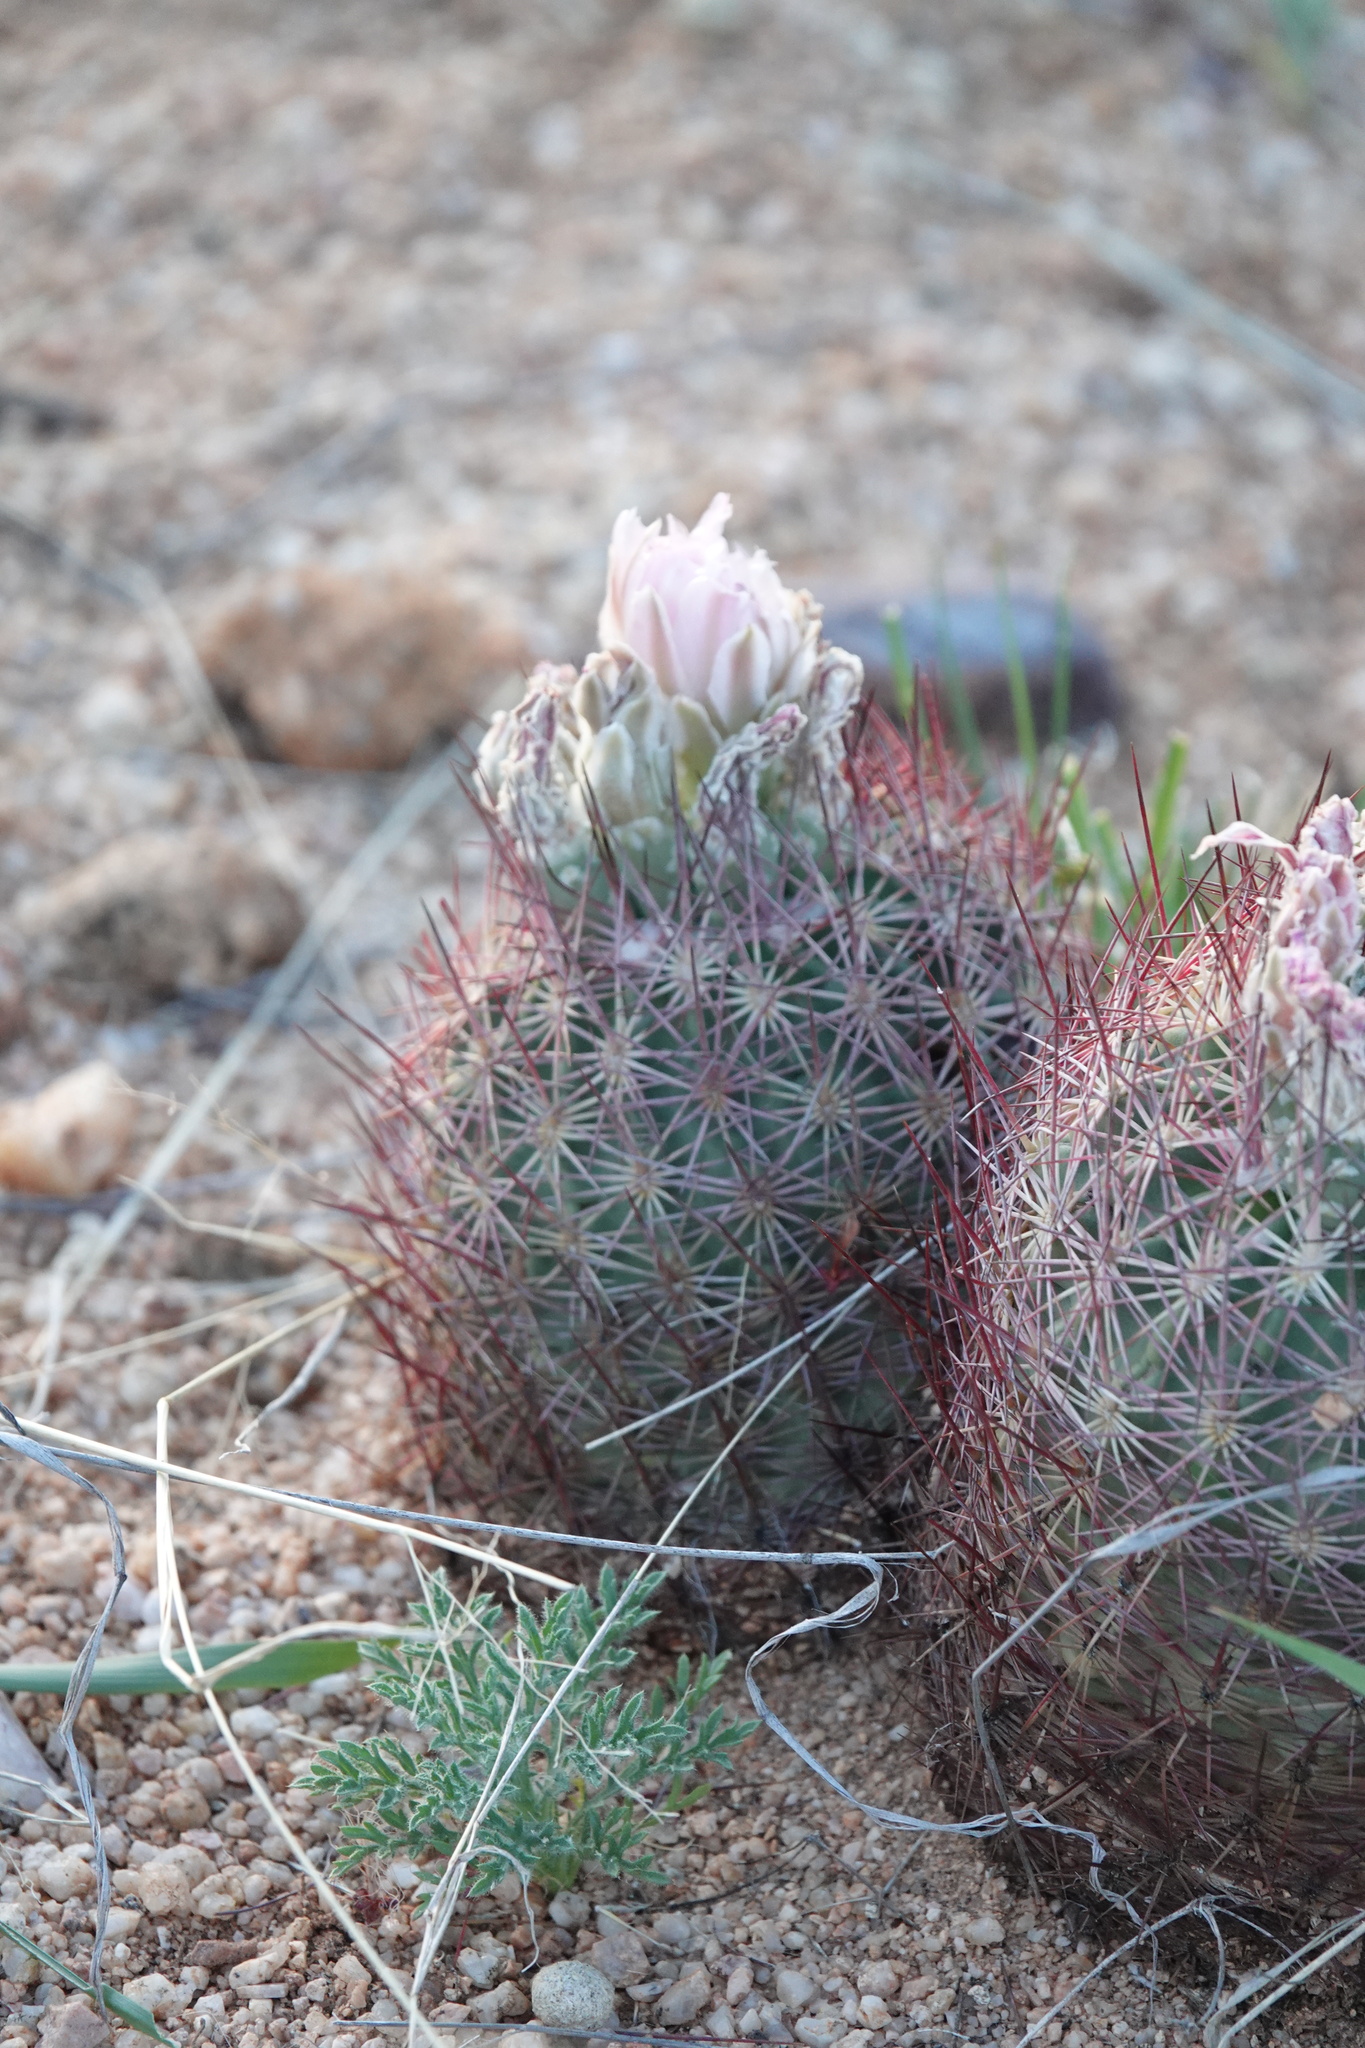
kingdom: Plantae
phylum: Tracheophyta
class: Magnoliopsida
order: Caryophyllales
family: Cactaceae
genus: Sclerocactus
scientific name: Sclerocactus johnsonii
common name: Eight-spine fishhook cactus
